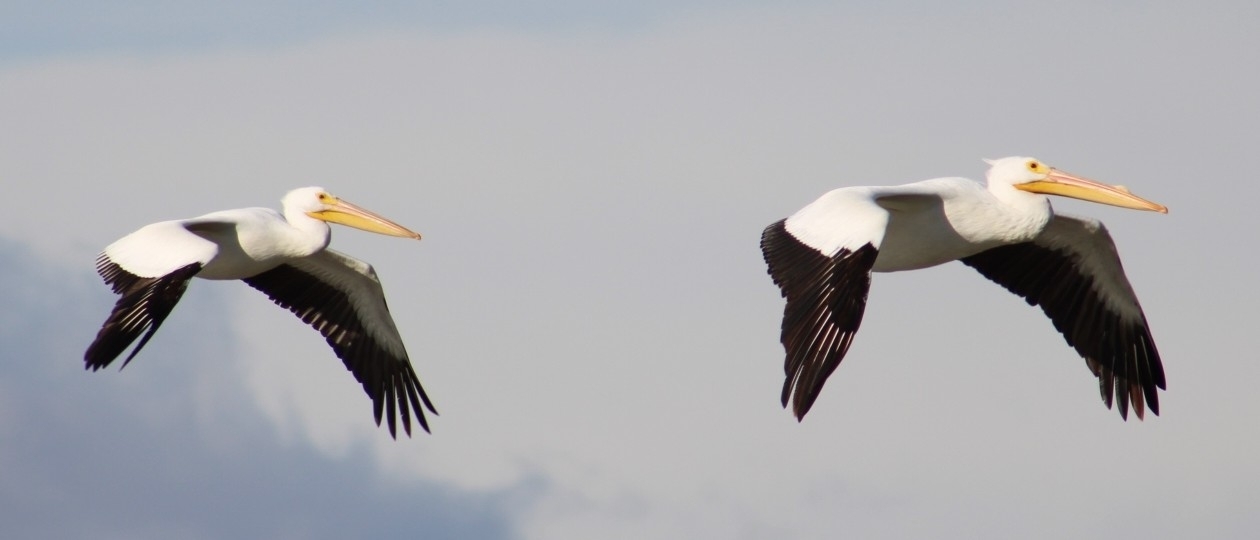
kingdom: Animalia
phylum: Chordata
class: Aves
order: Pelecaniformes
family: Pelecanidae
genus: Pelecanus
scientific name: Pelecanus erythrorhynchos
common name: American white pelican
